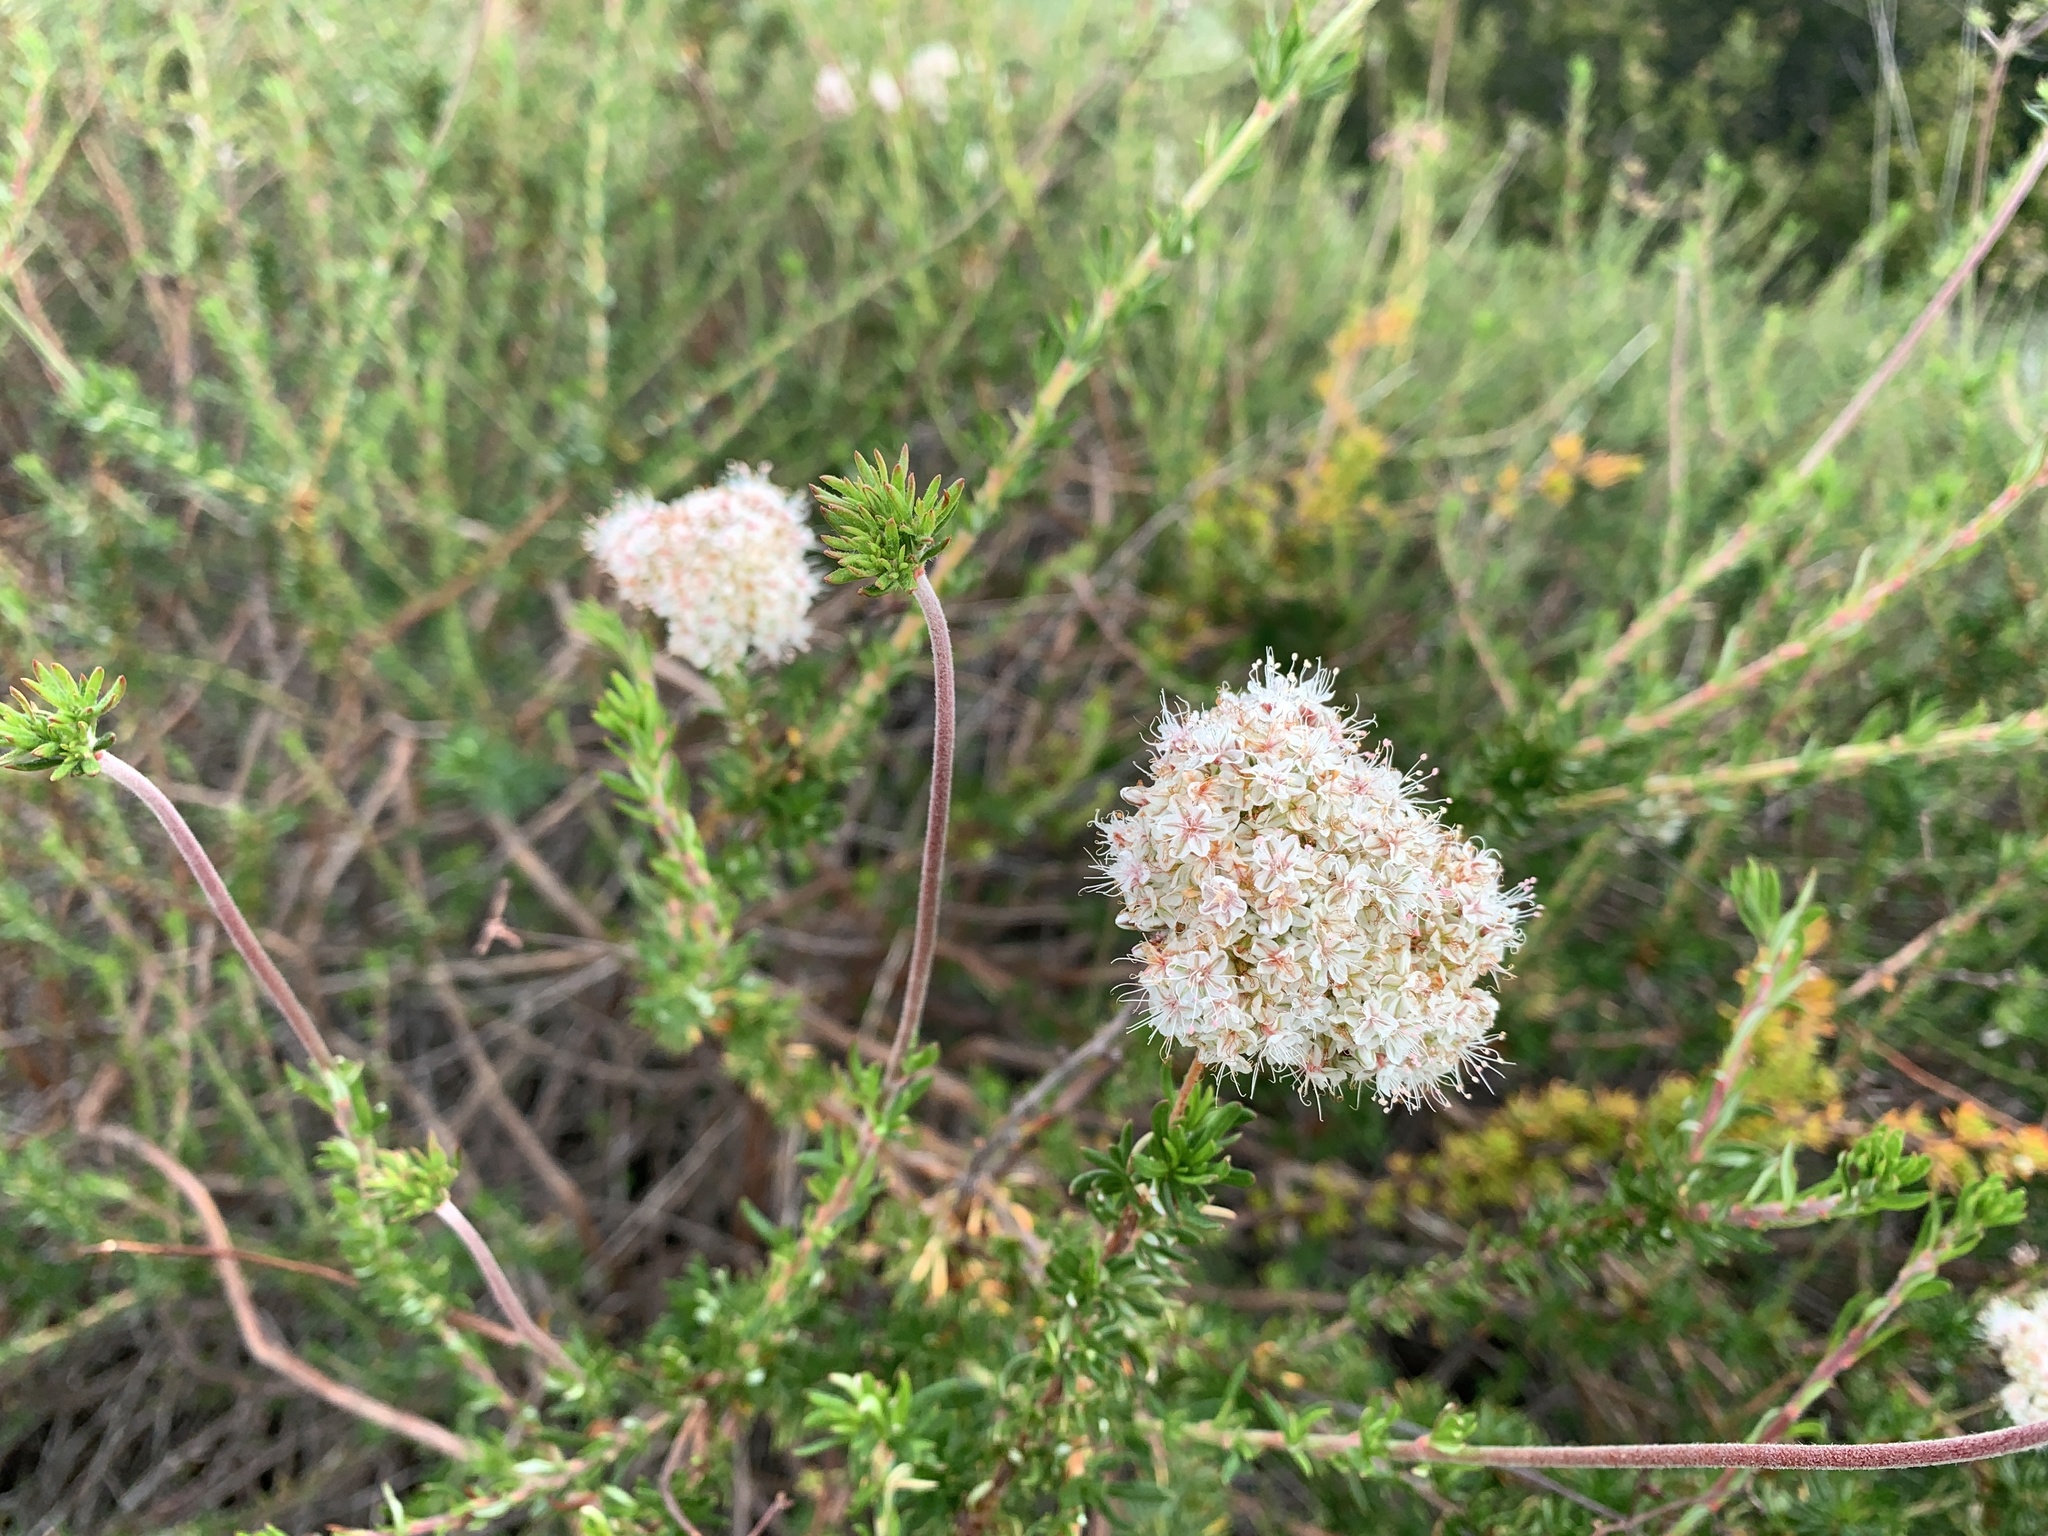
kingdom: Plantae
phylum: Tracheophyta
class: Magnoliopsida
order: Caryophyllales
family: Polygonaceae
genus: Eriogonum
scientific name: Eriogonum fasciculatum
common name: California wild buckwheat
